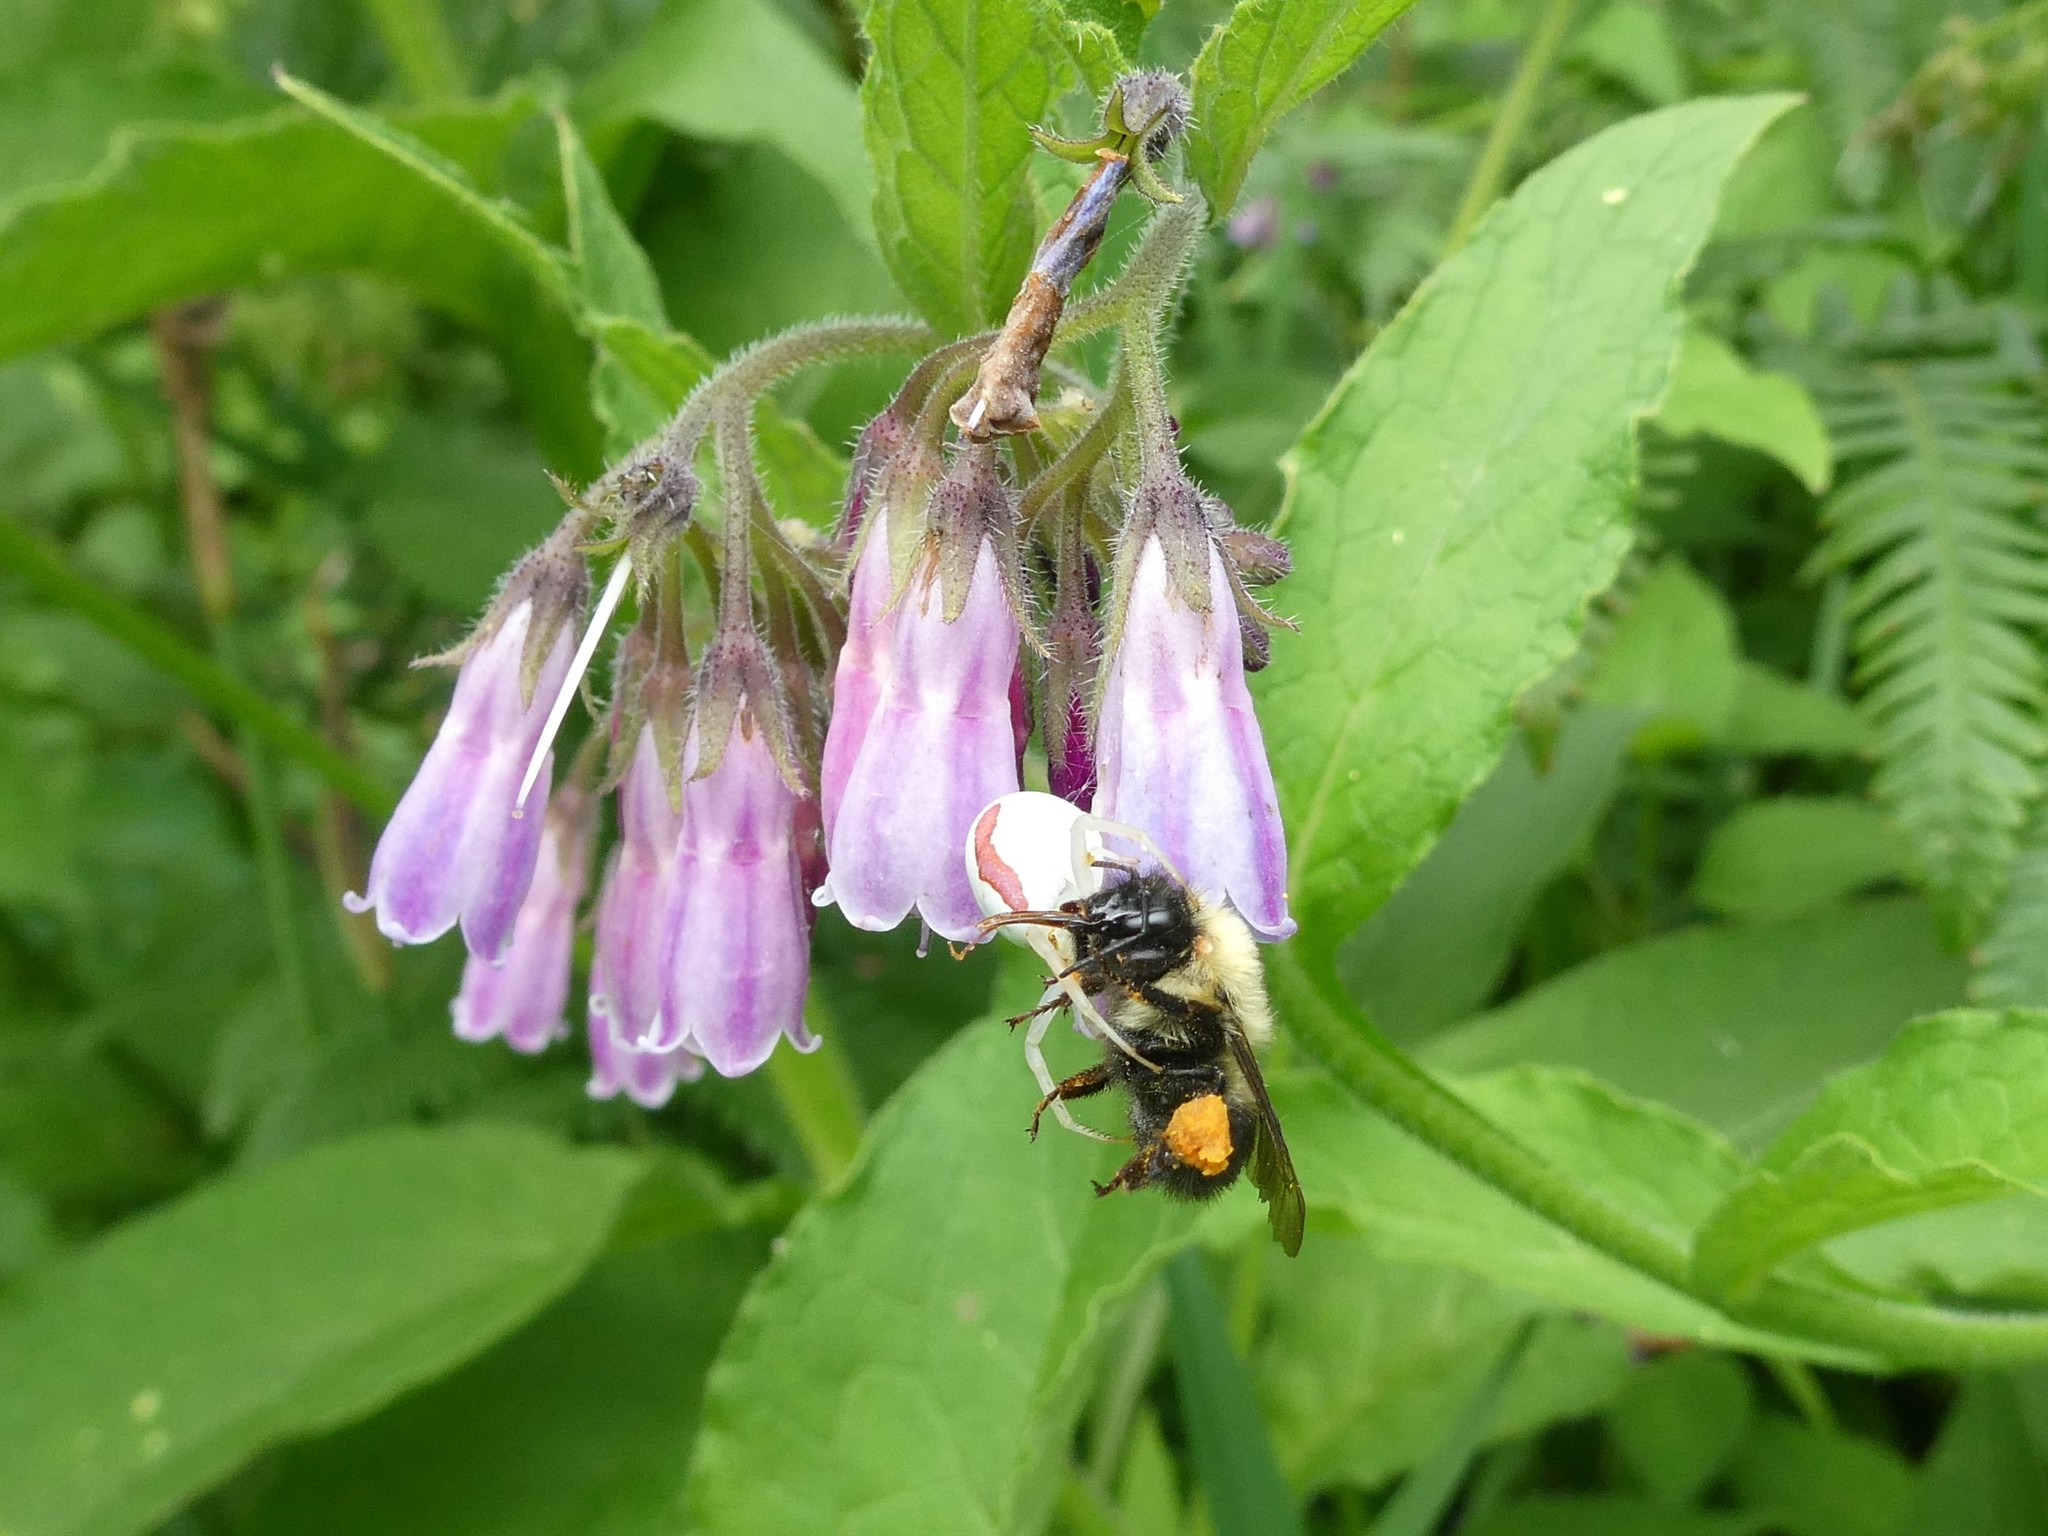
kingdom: Animalia
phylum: Arthropoda
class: Insecta
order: Hymenoptera
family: Apidae
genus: Bombus
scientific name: Bombus bimaculatus
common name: Two-spotted bumble bee
